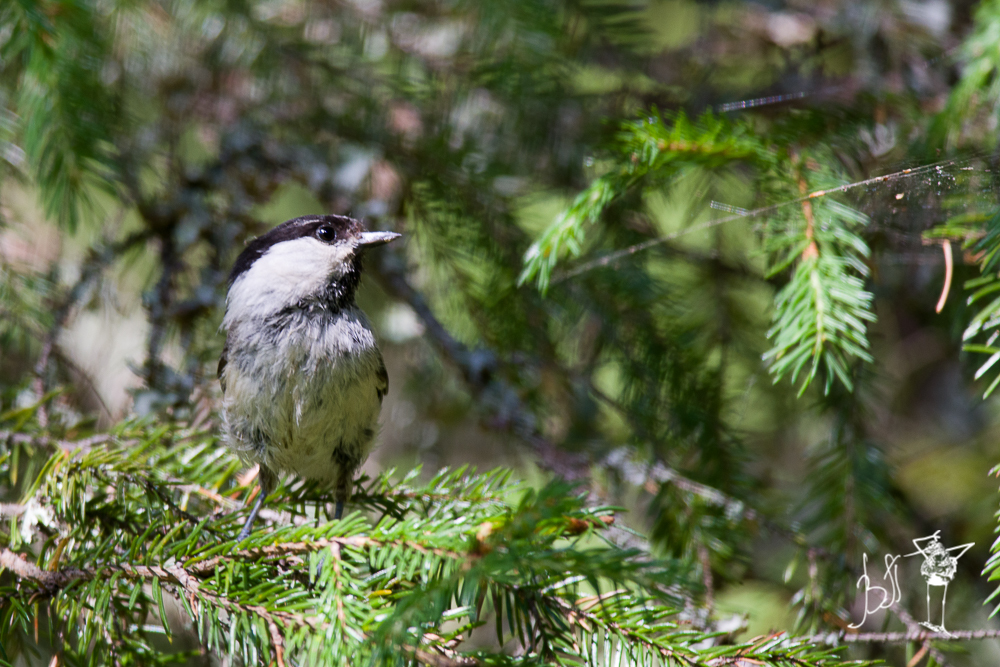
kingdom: Animalia
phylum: Chordata
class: Aves
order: Passeriformes
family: Paridae
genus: Poecile
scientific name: Poecile montanus
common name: Willow tit
